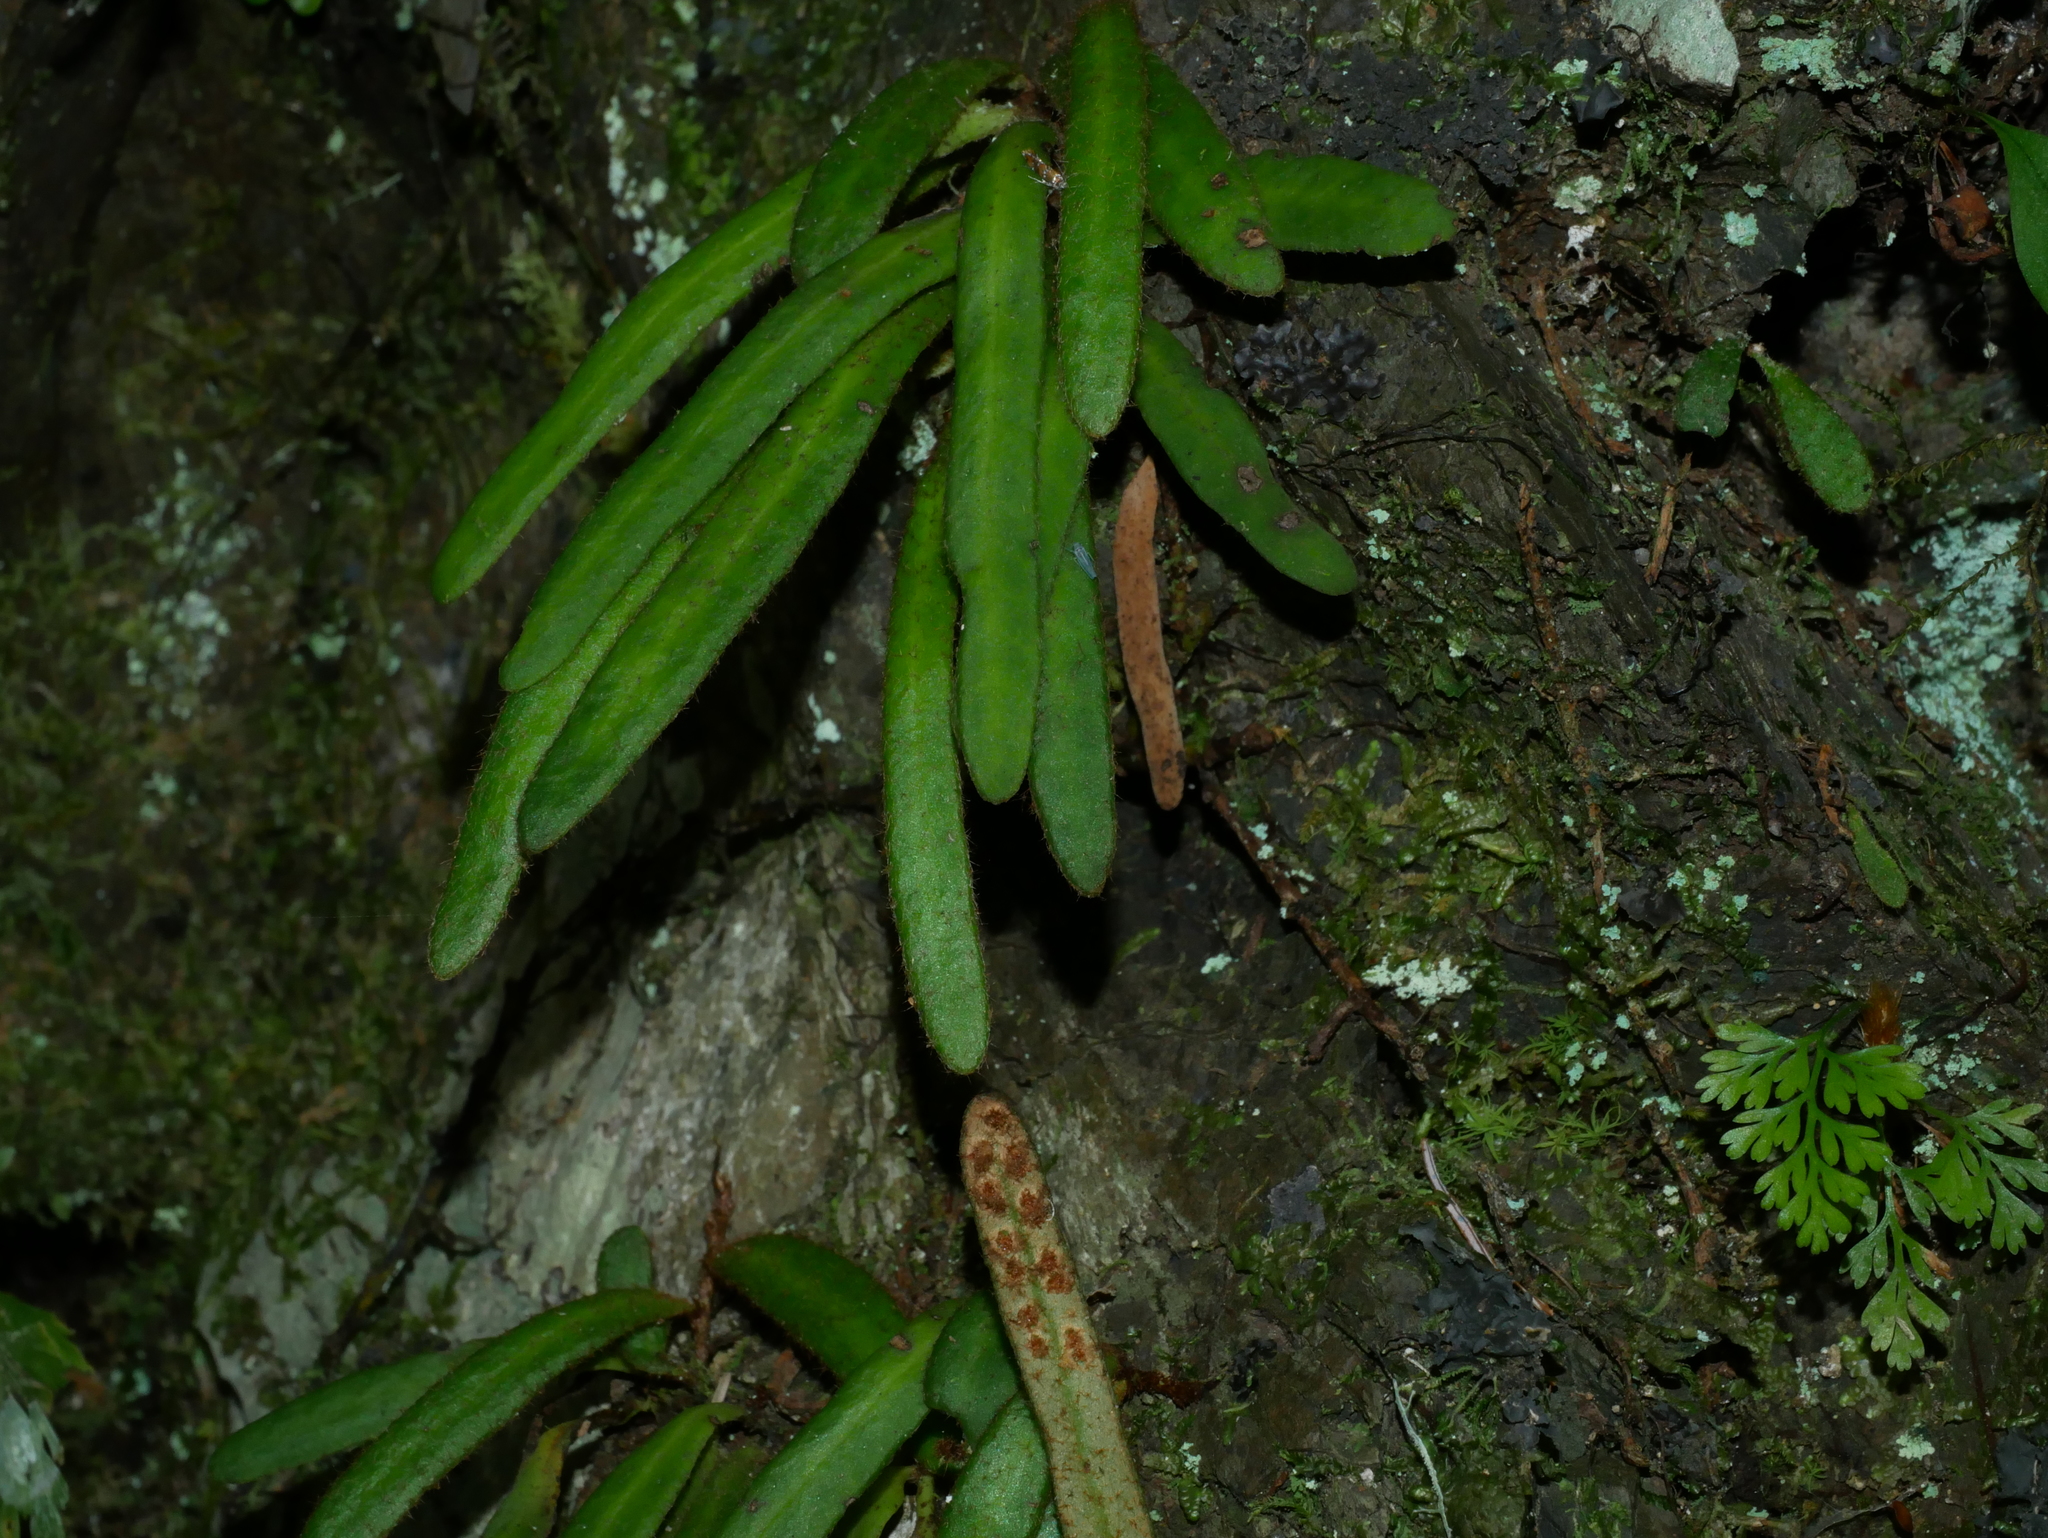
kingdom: Plantae
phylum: Tracheophyta
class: Polypodiopsida
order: Polypodiales
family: Polypodiaceae
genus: Pyrrosia
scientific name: Pyrrosia linearifolia
